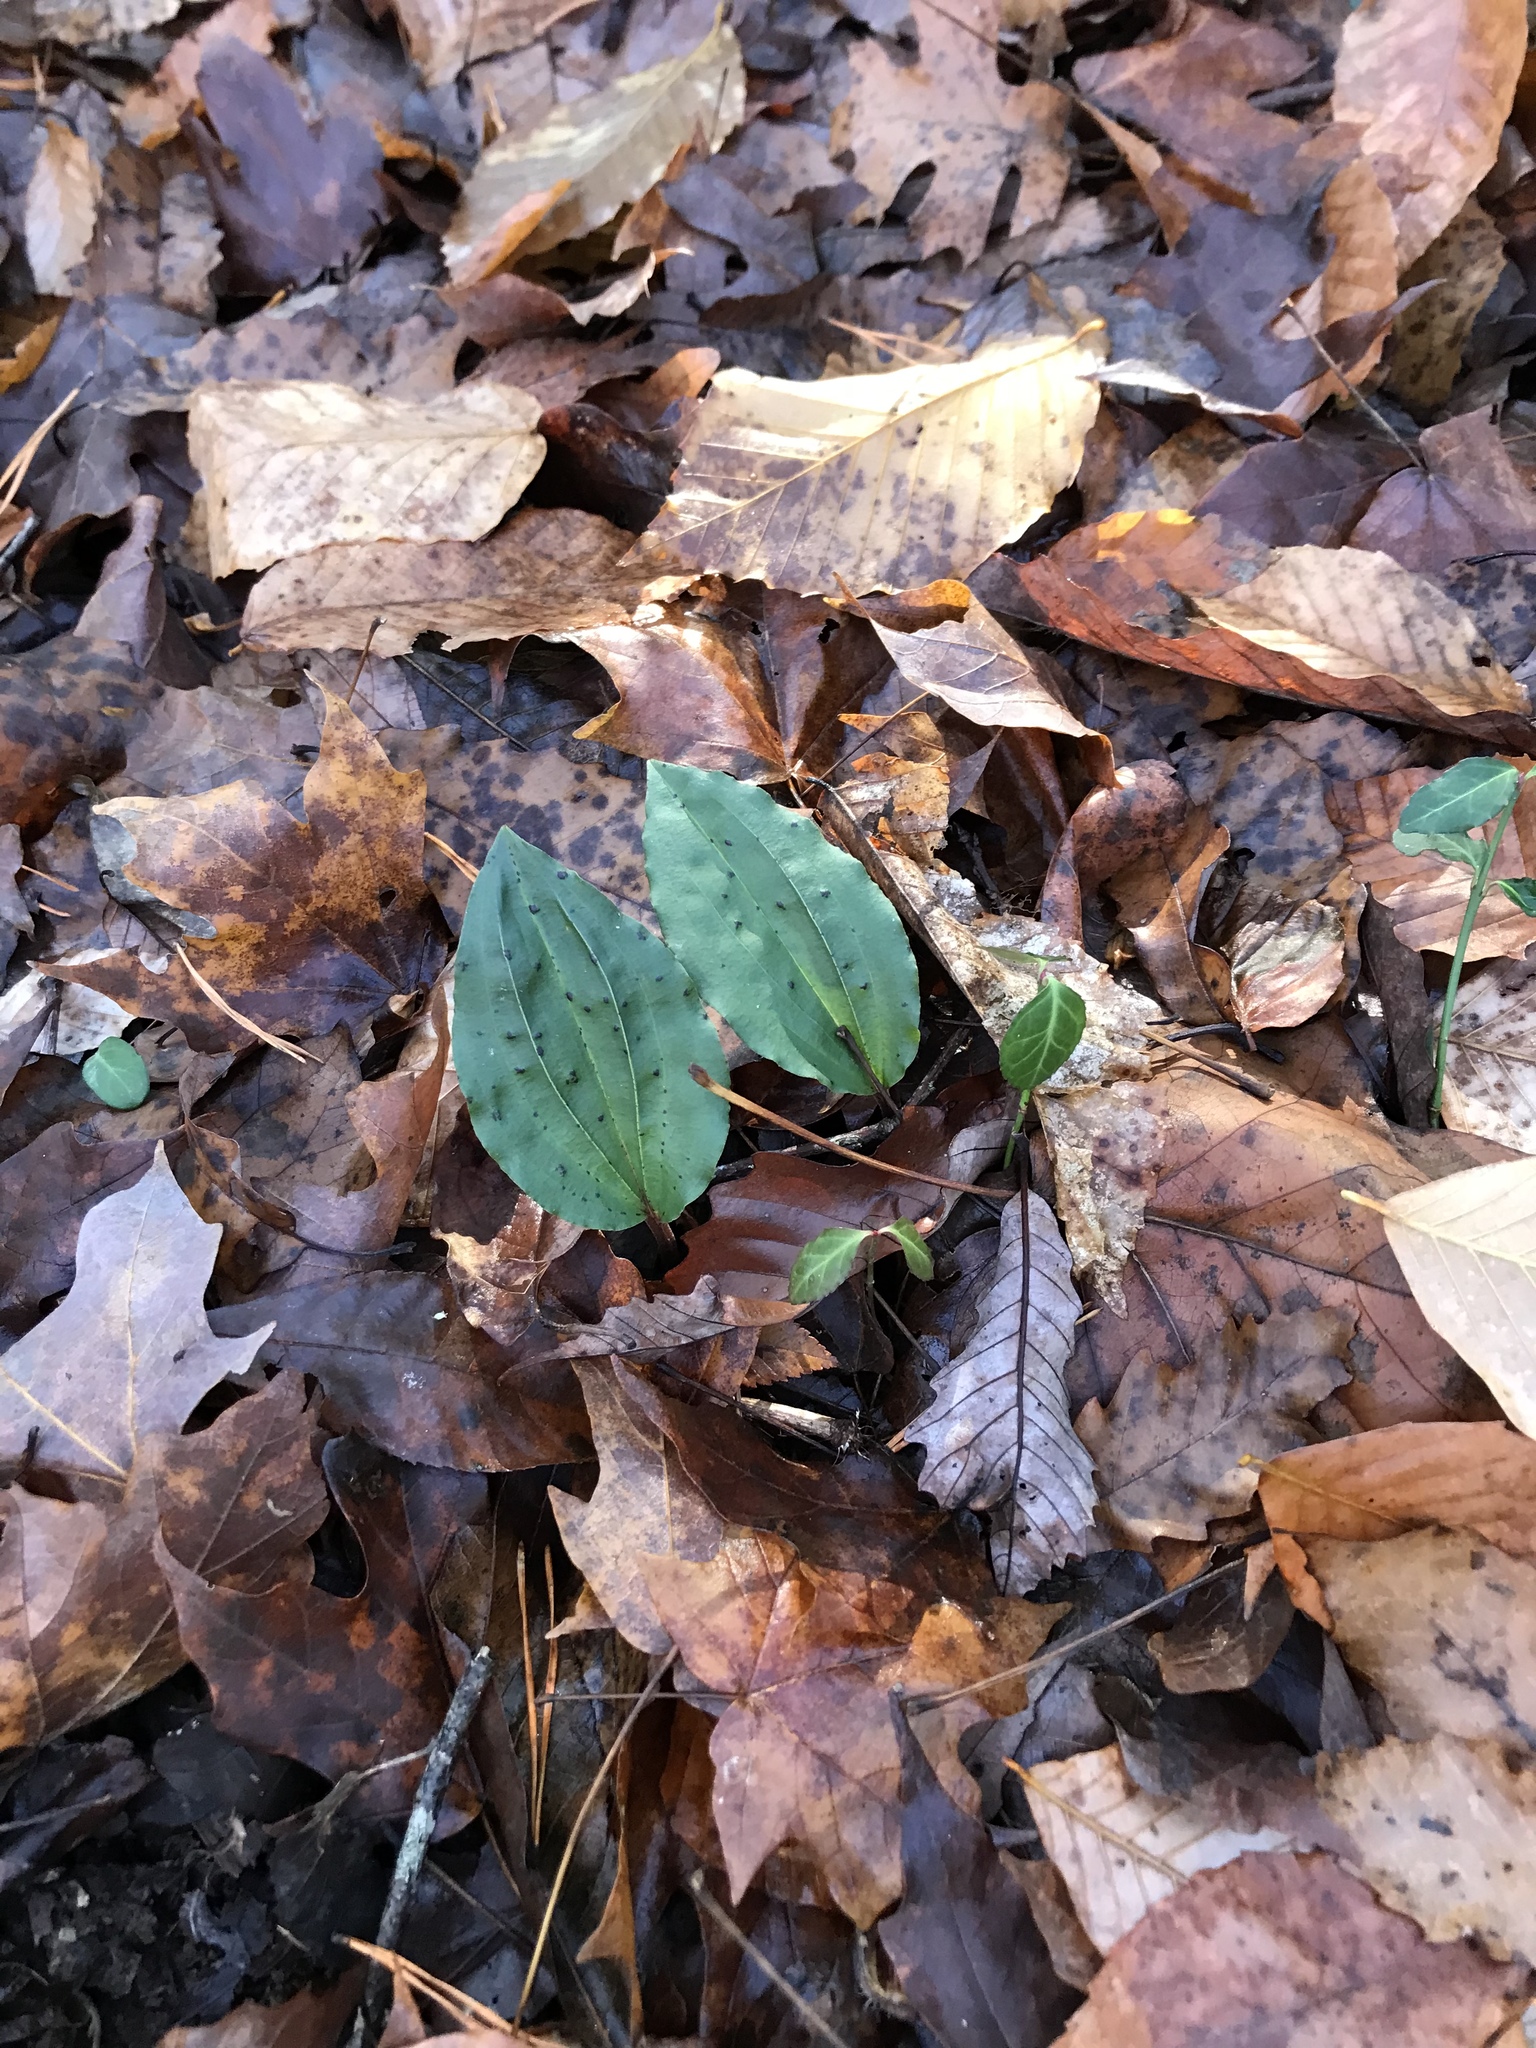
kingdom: Plantae
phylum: Tracheophyta
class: Liliopsida
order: Asparagales
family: Orchidaceae
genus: Tipularia
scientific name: Tipularia discolor
